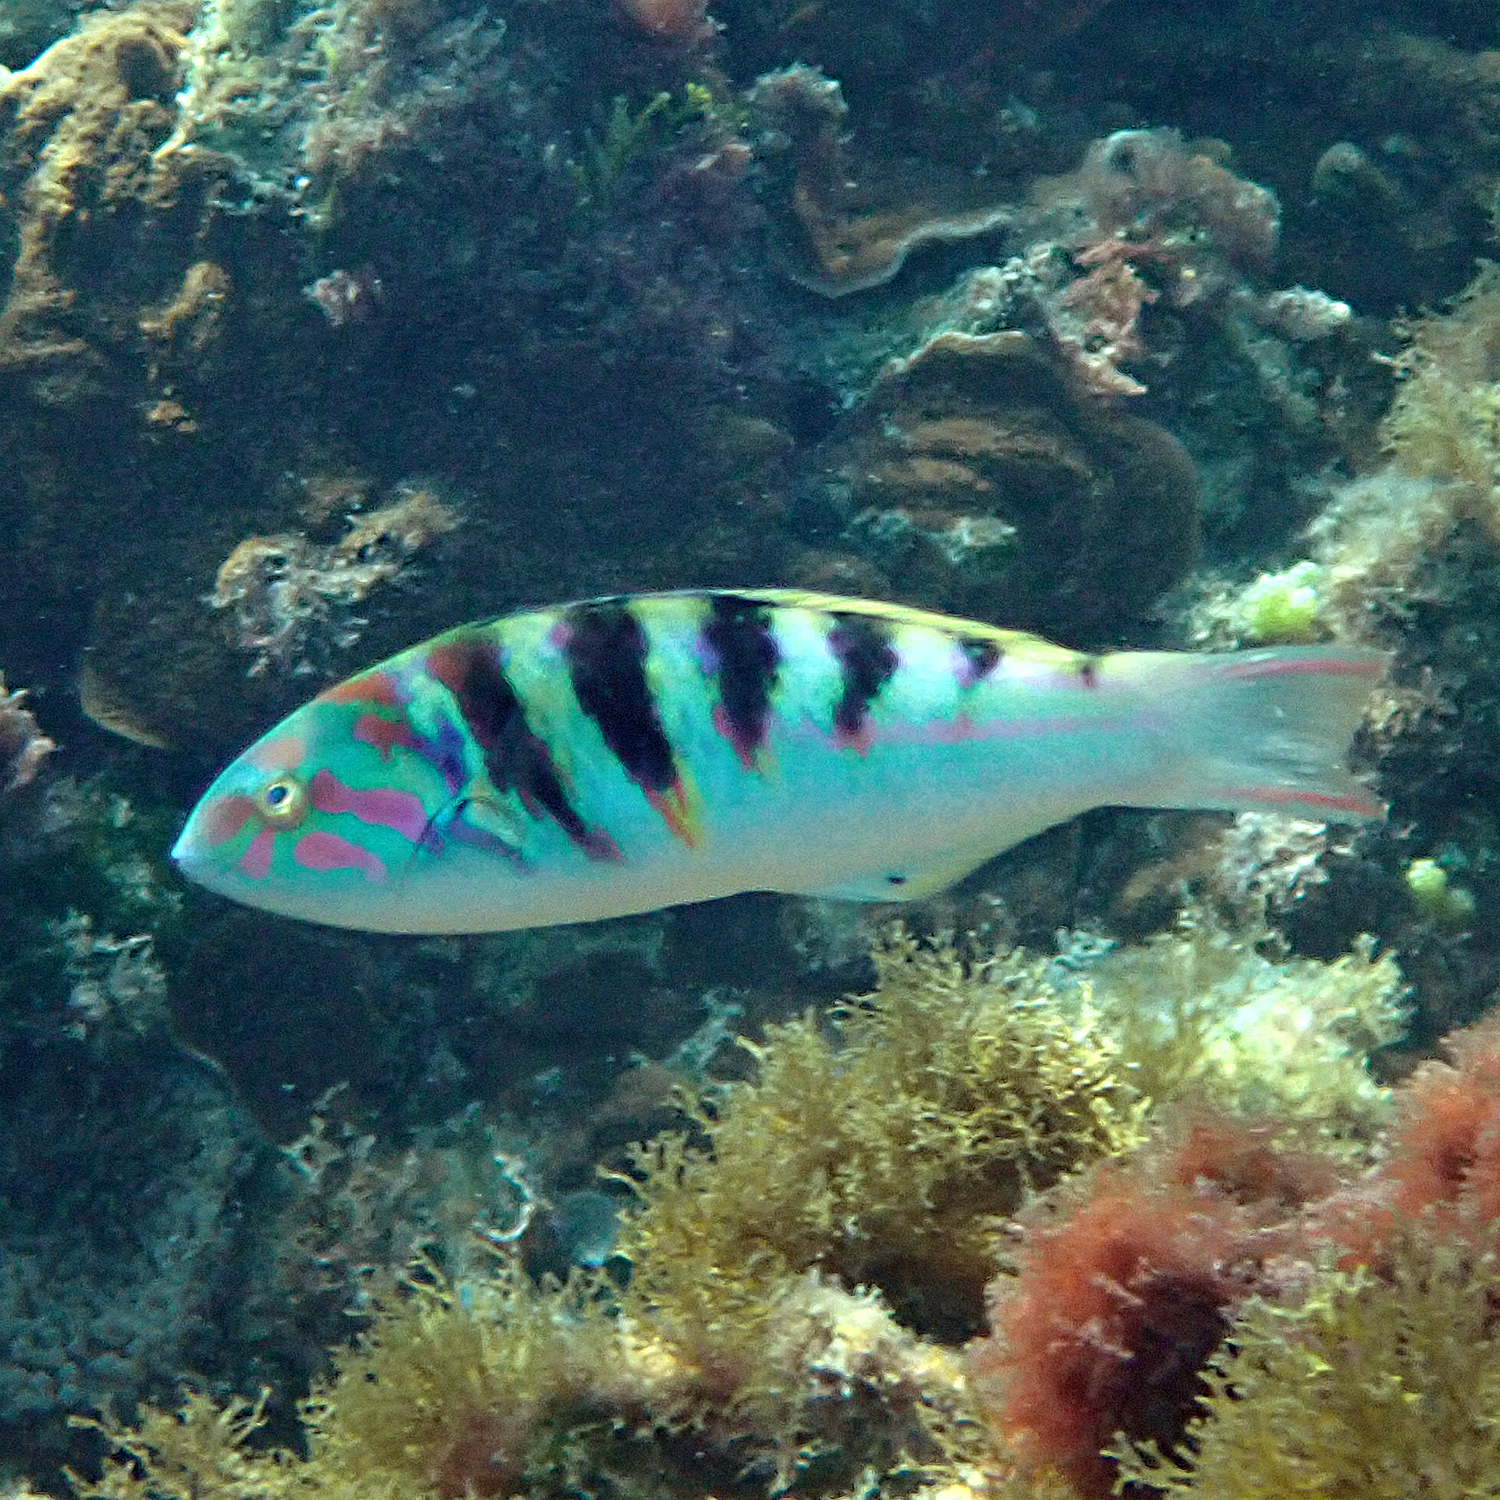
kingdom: Animalia
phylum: Chordata
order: Perciformes
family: Labridae
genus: Thalassoma
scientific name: Thalassoma hardwicke
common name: Sixbar wrasse
